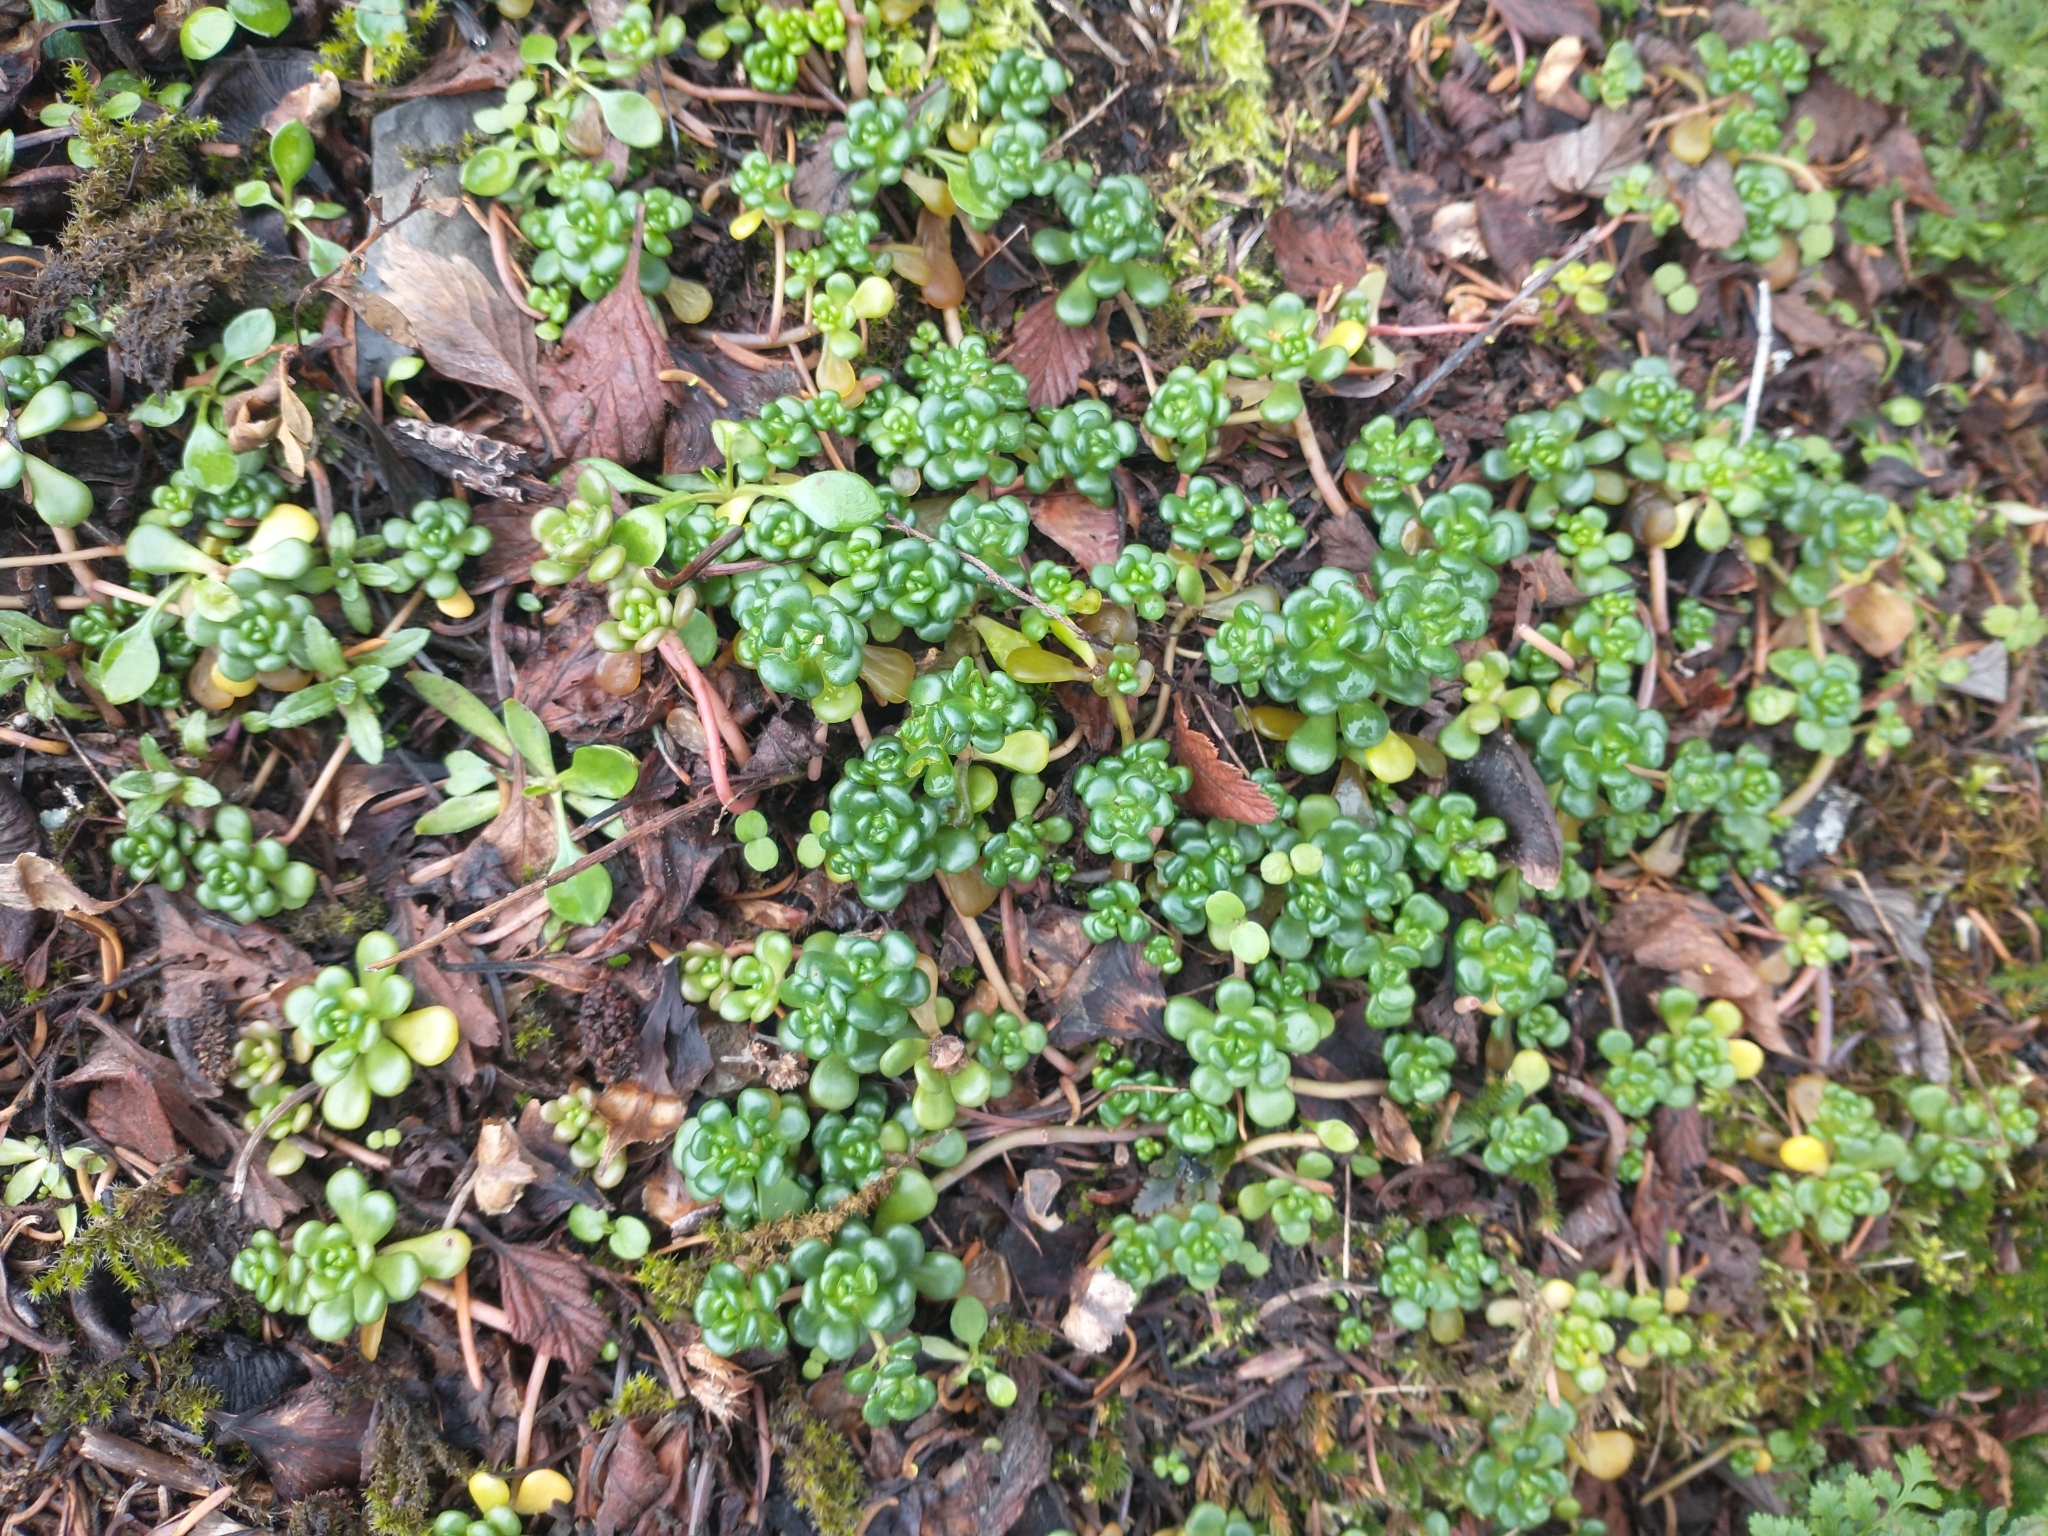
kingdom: Plantae
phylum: Tracheophyta
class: Magnoliopsida
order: Saxifragales
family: Crassulaceae
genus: Sedum
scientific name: Sedum oreganum
